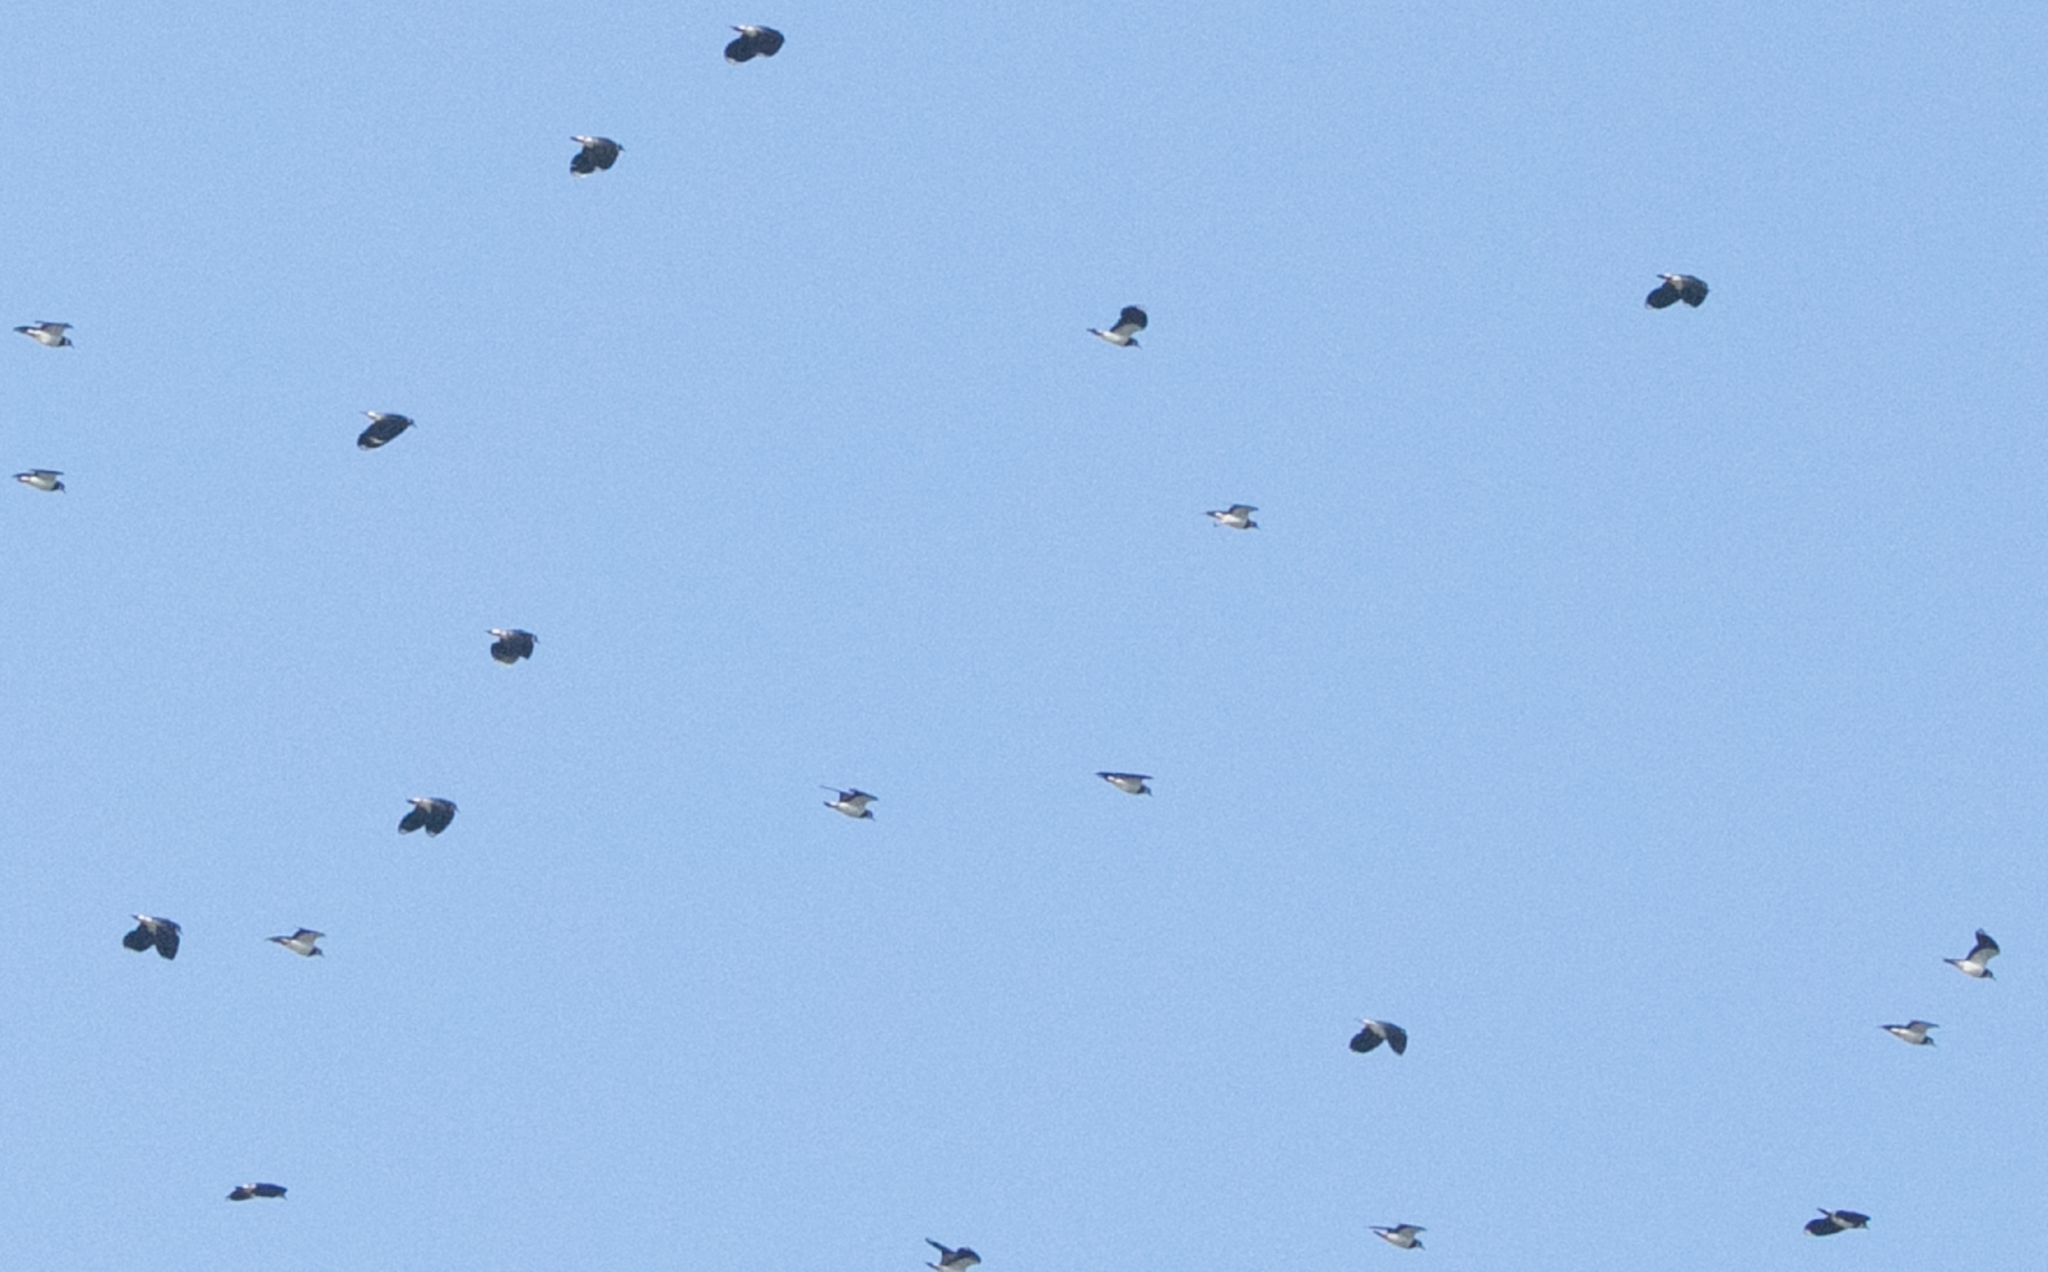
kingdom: Animalia
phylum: Chordata
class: Aves
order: Charadriiformes
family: Charadriidae
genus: Vanellus
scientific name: Vanellus vanellus
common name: Northern lapwing
